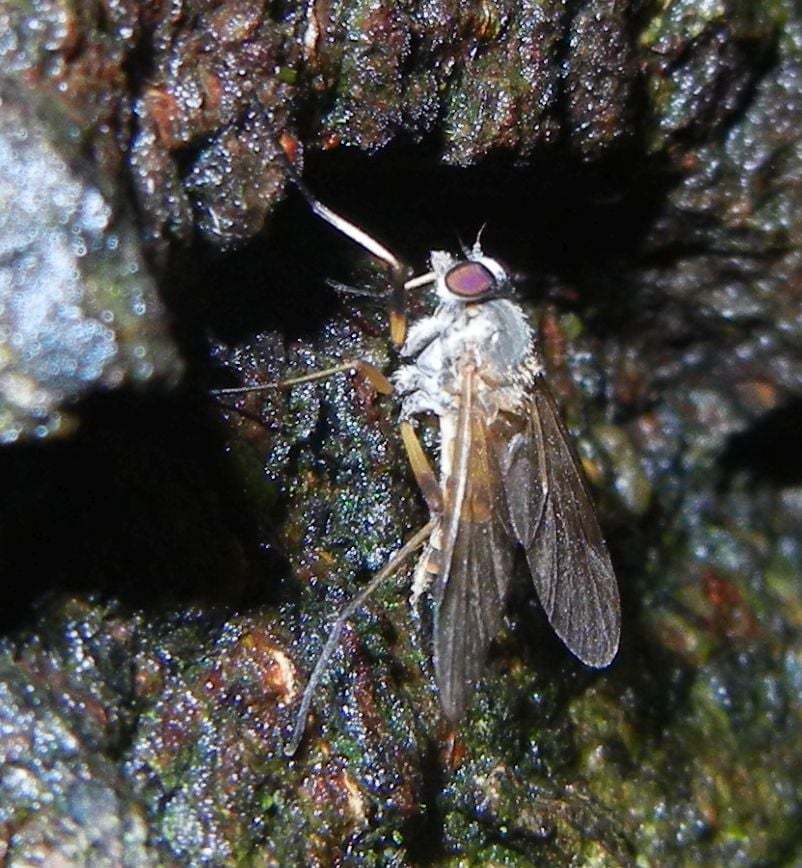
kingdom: Animalia
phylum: Arthropoda
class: Insecta
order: Diptera
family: Rhagionidae
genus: Rhagio
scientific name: Rhagio lineola
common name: Small fleck-winged snipefly
